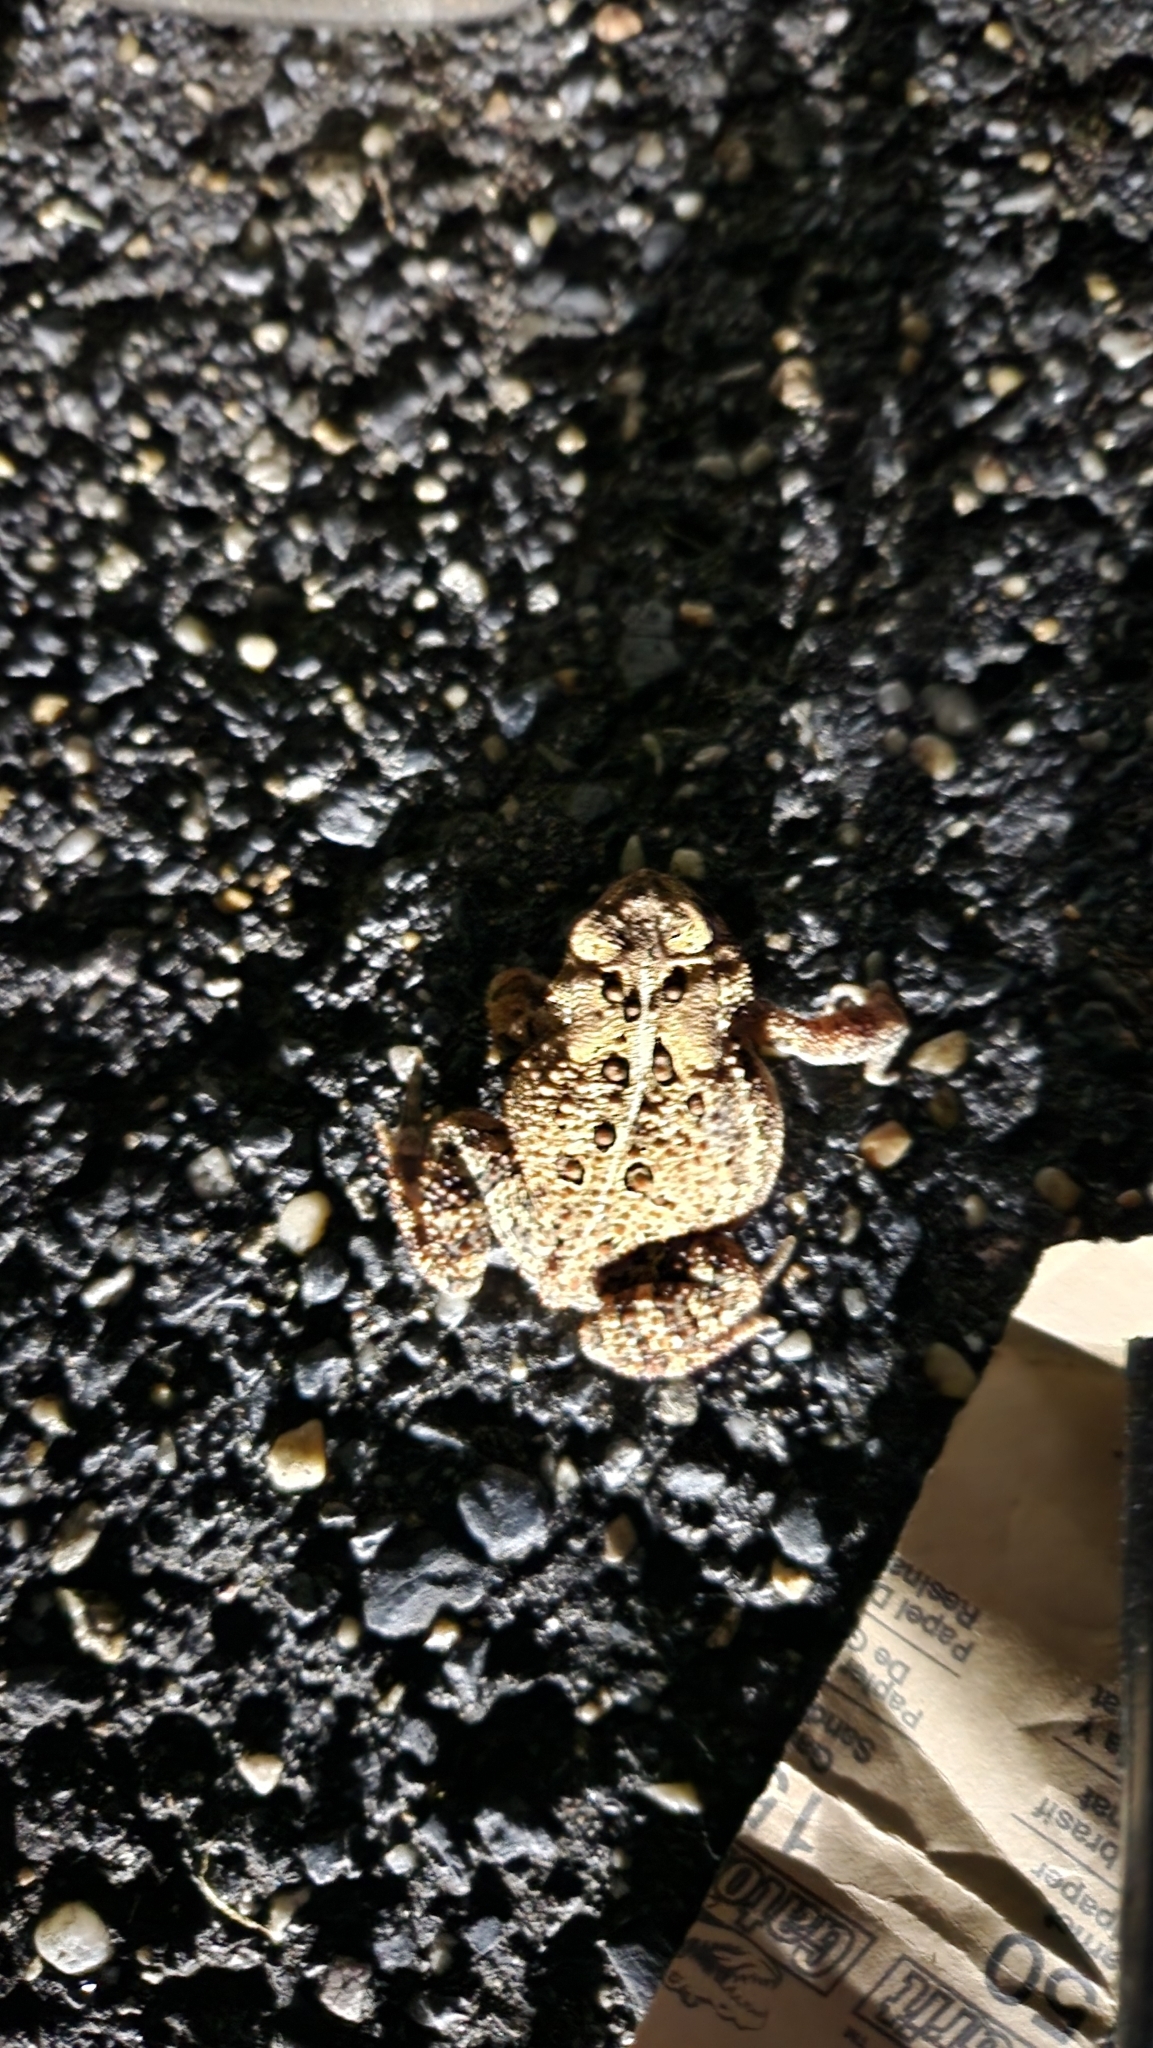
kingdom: Animalia
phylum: Chordata
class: Amphibia
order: Anura
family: Bufonidae
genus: Anaxyrus
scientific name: Anaxyrus americanus
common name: American toad
